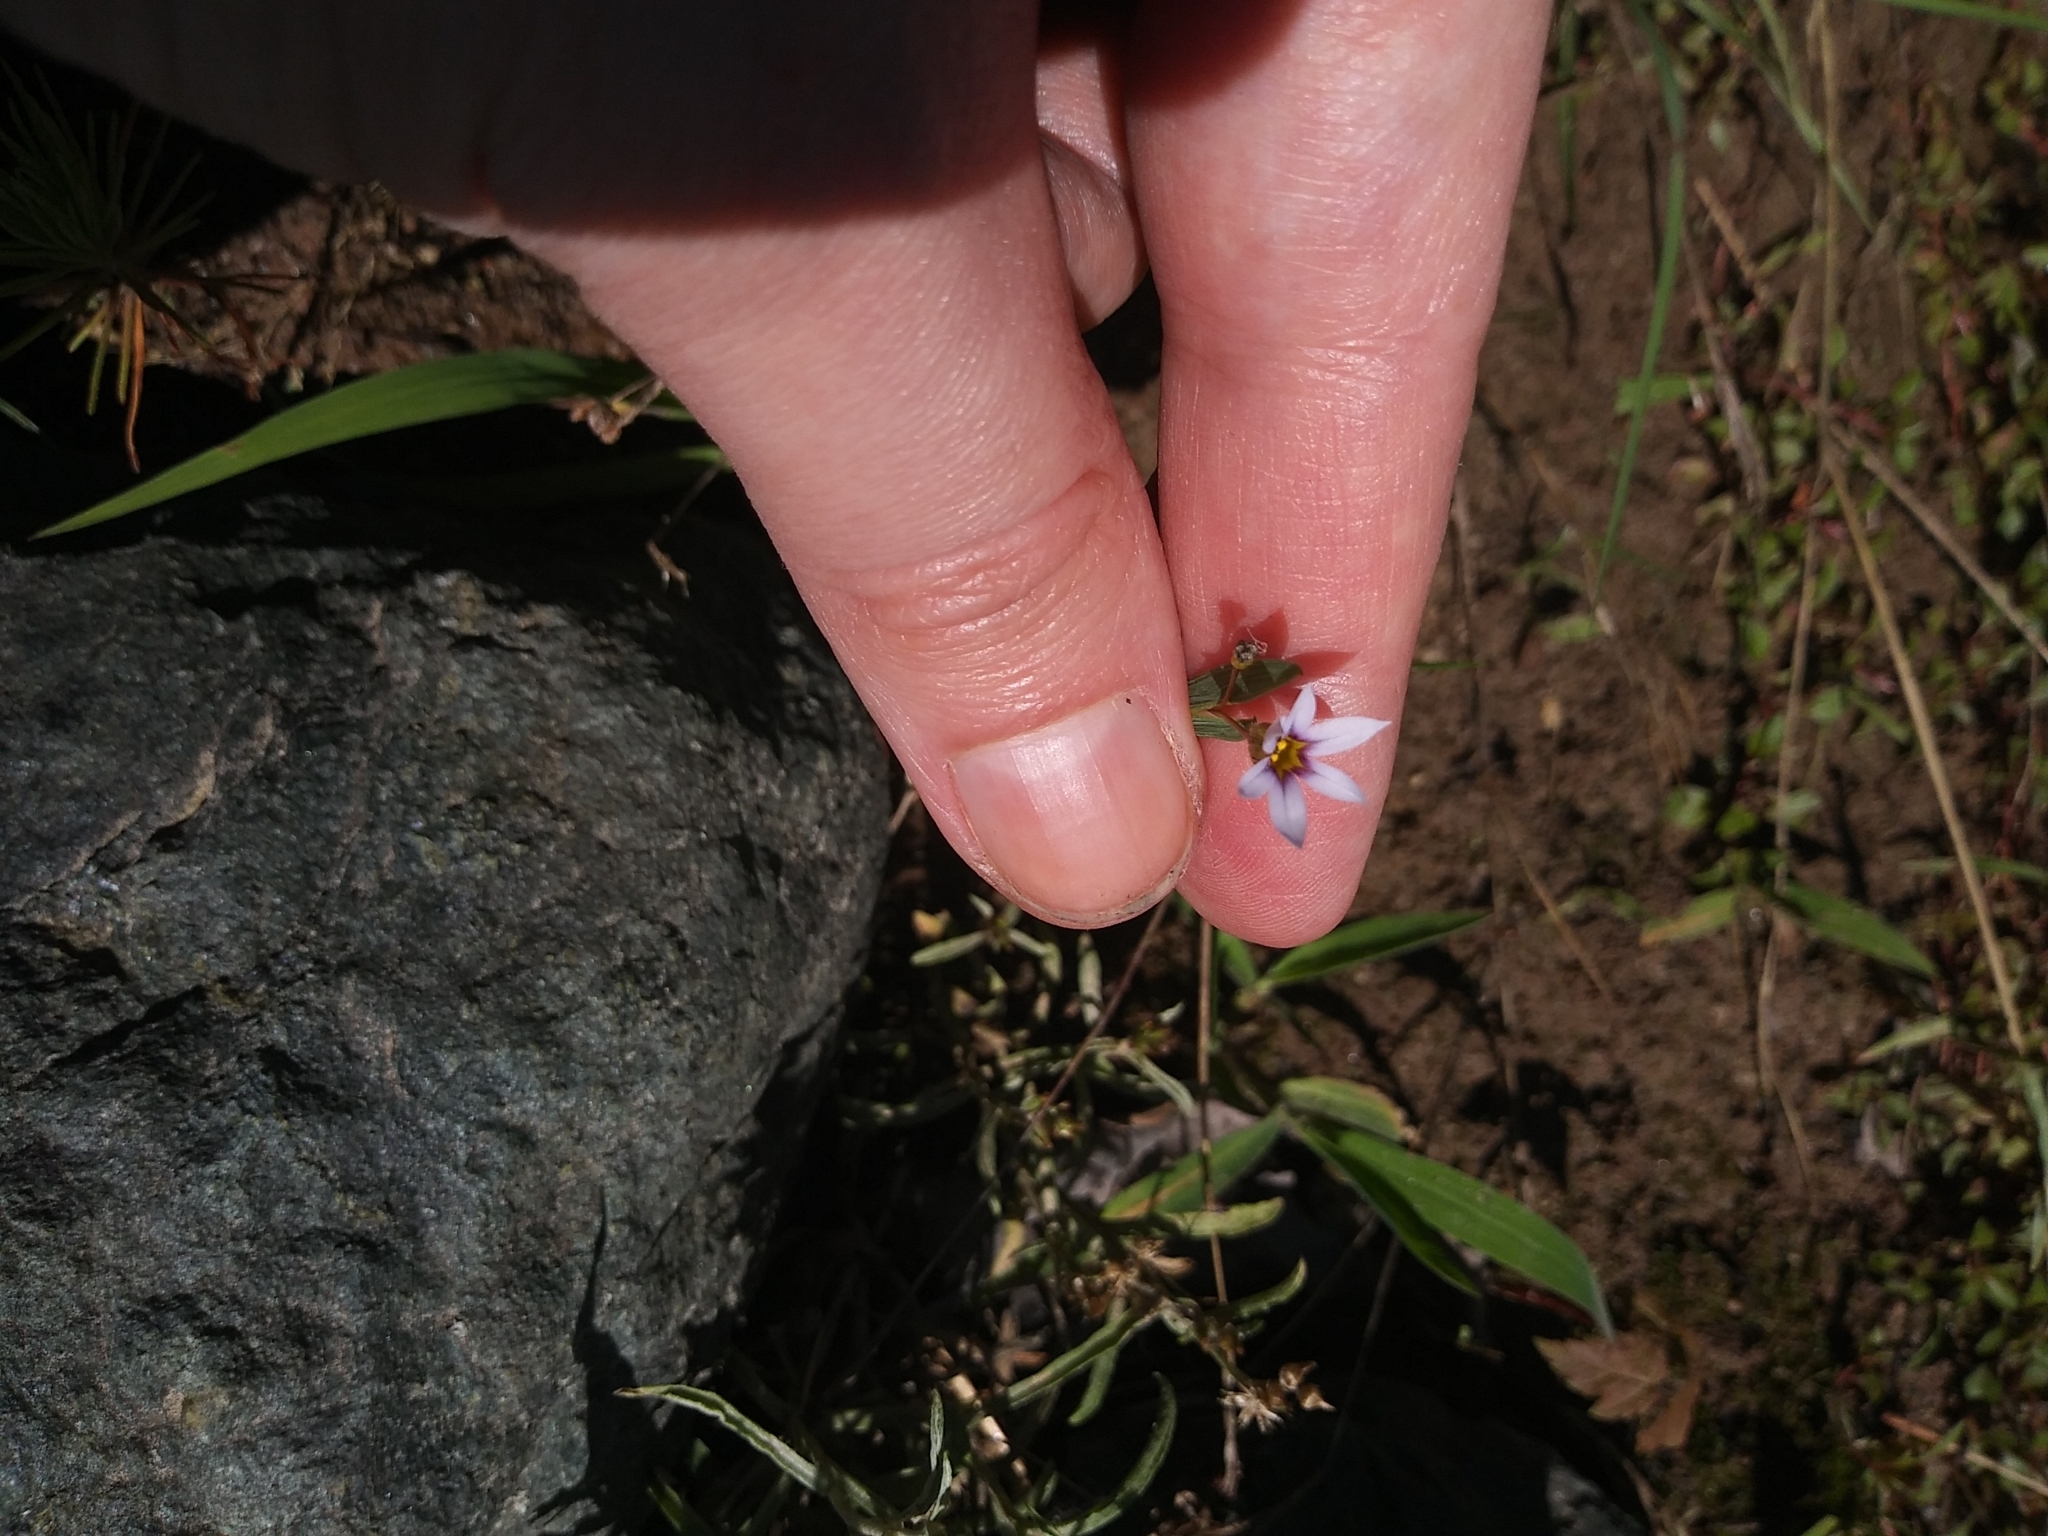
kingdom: Plantae
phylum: Tracheophyta
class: Liliopsida
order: Asparagales
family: Iridaceae
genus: Sisyrinchium
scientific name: Sisyrinchium micranthum
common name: Bermuda pigroot
